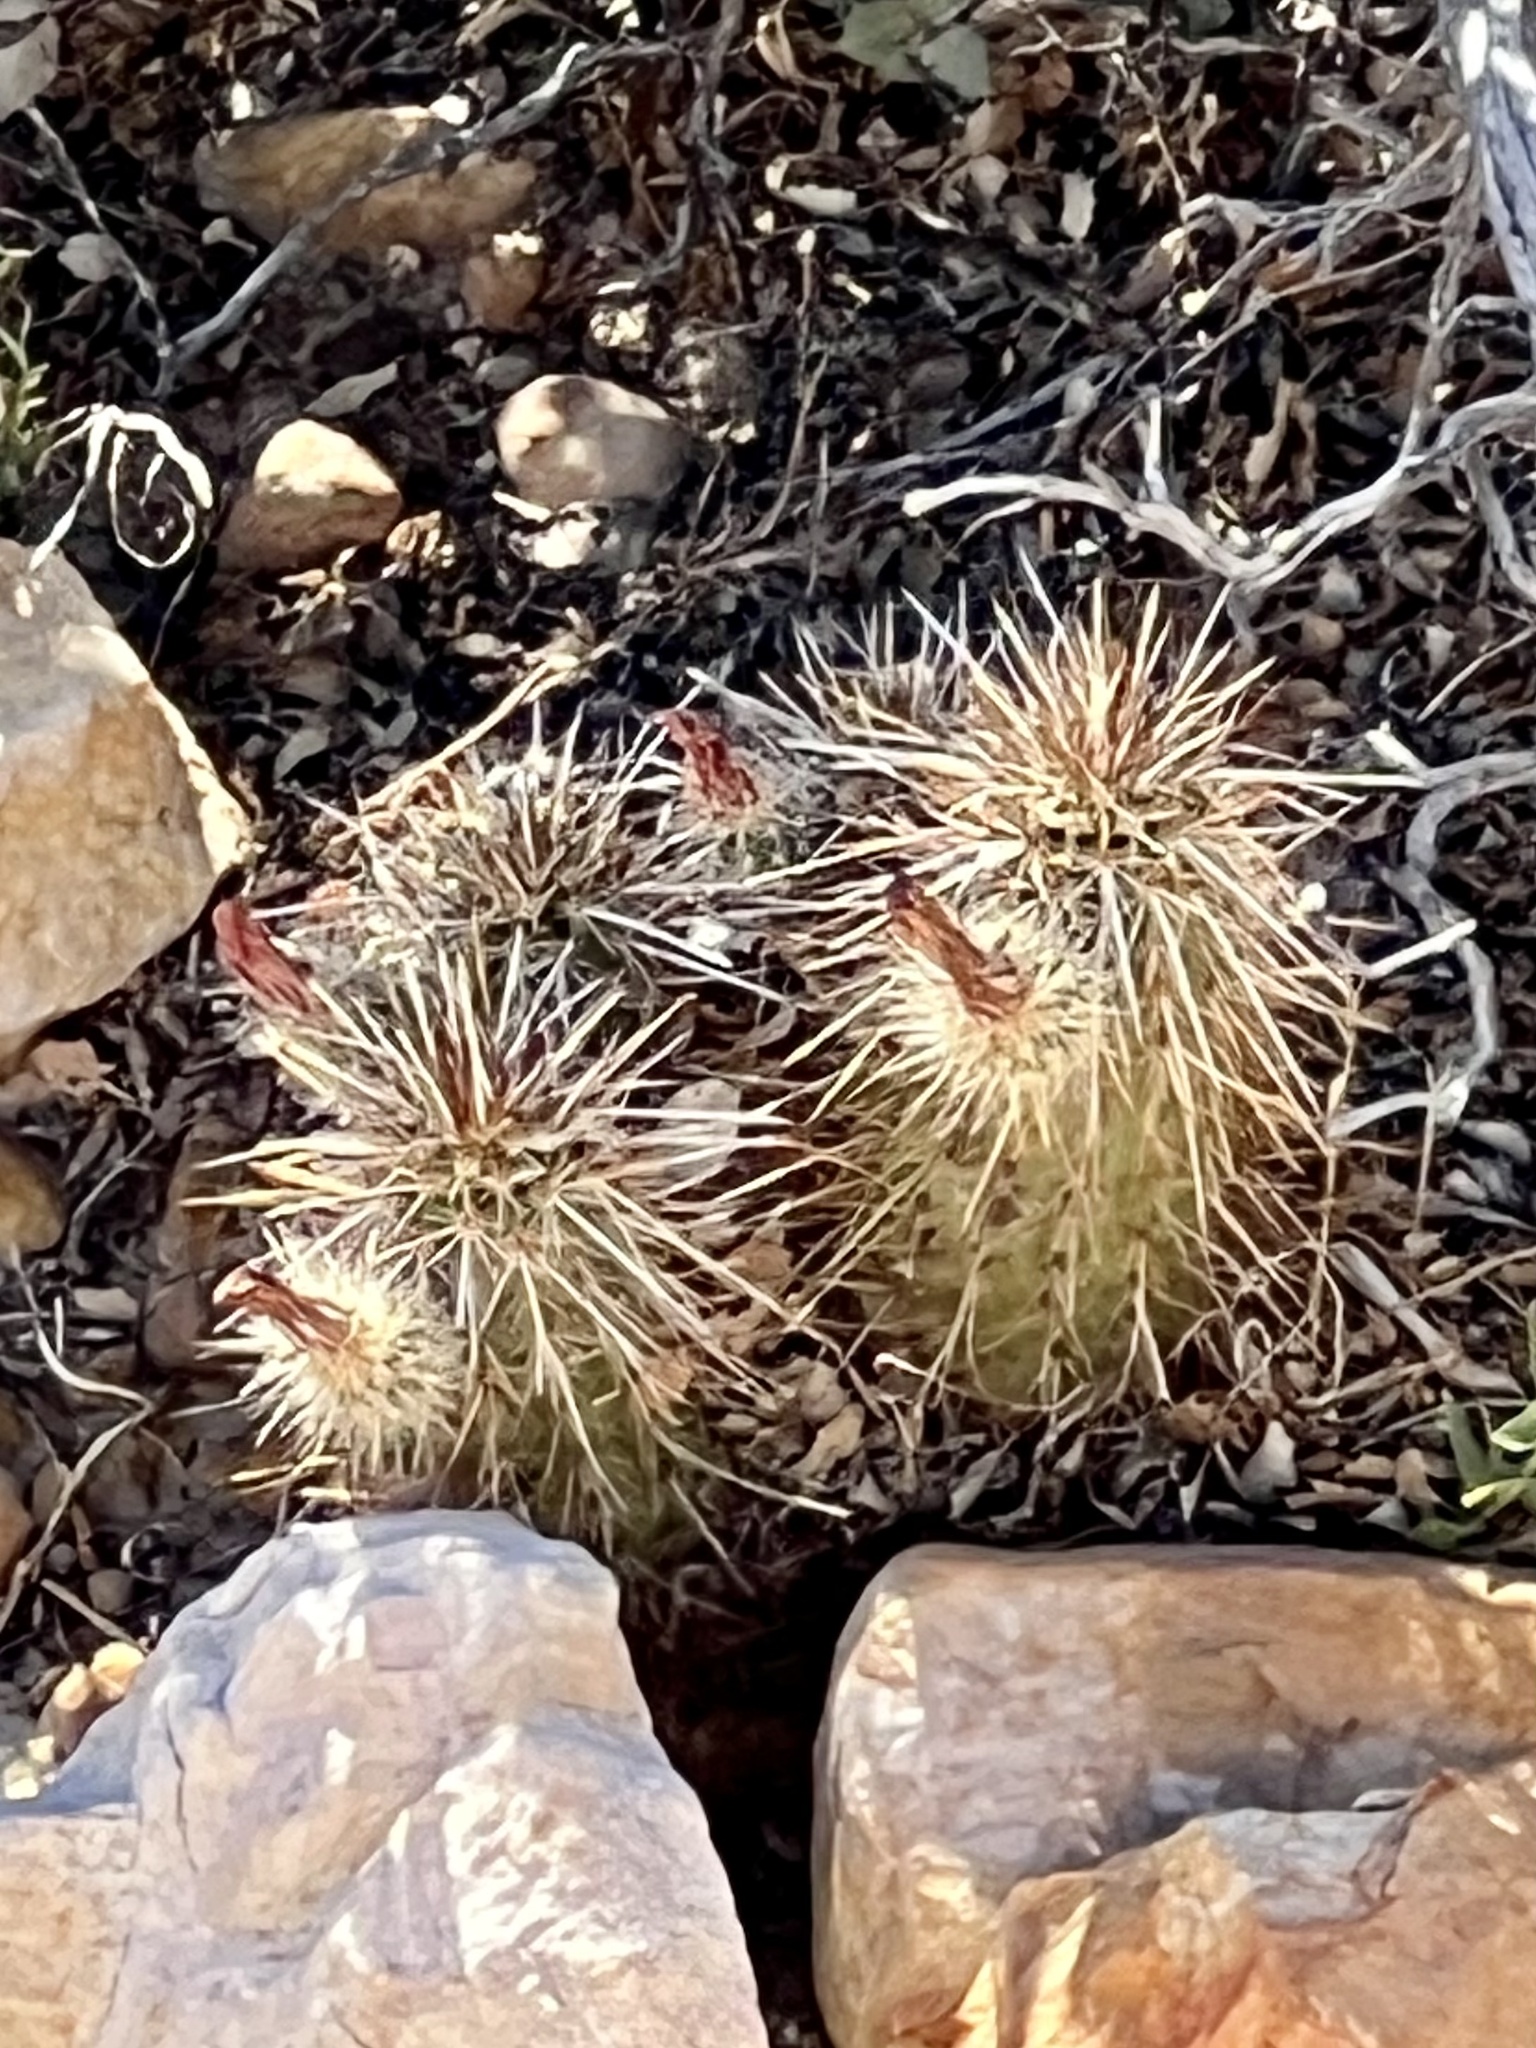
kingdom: Plantae
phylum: Tracheophyta
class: Magnoliopsida
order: Caryophyllales
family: Cactaceae
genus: Echinocereus
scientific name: Echinocereus engelmannii
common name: Engelmann's hedgehog cactus
